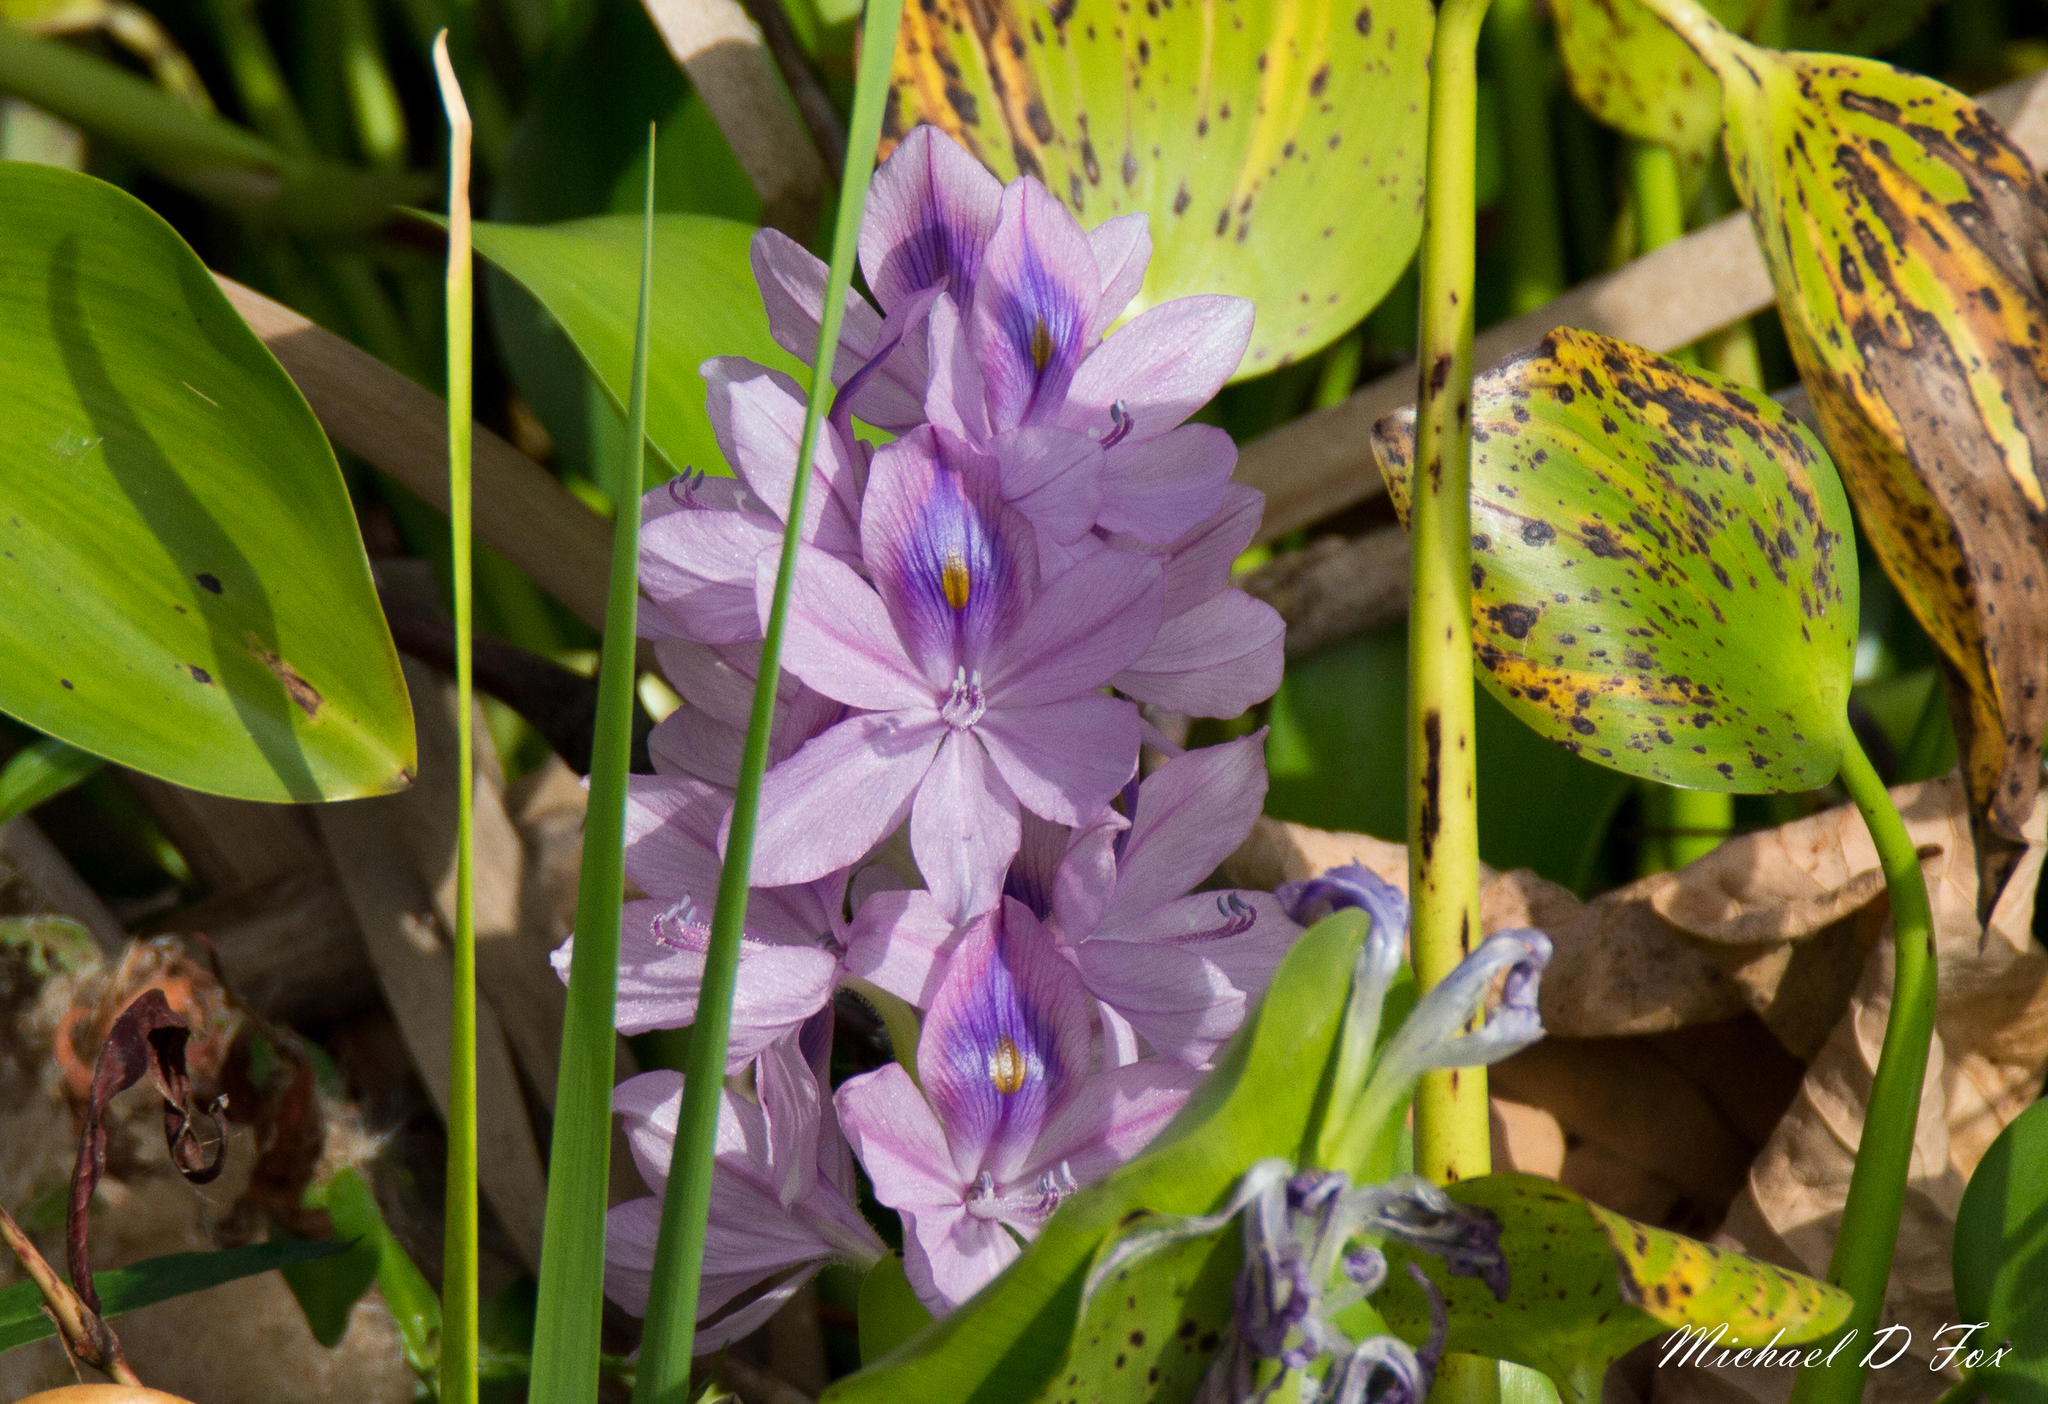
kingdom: Plantae
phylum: Tracheophyta
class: Liliopsida
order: Commelinales
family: Pontederiaceae
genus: Pontederia
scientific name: Pontederia crassipes
